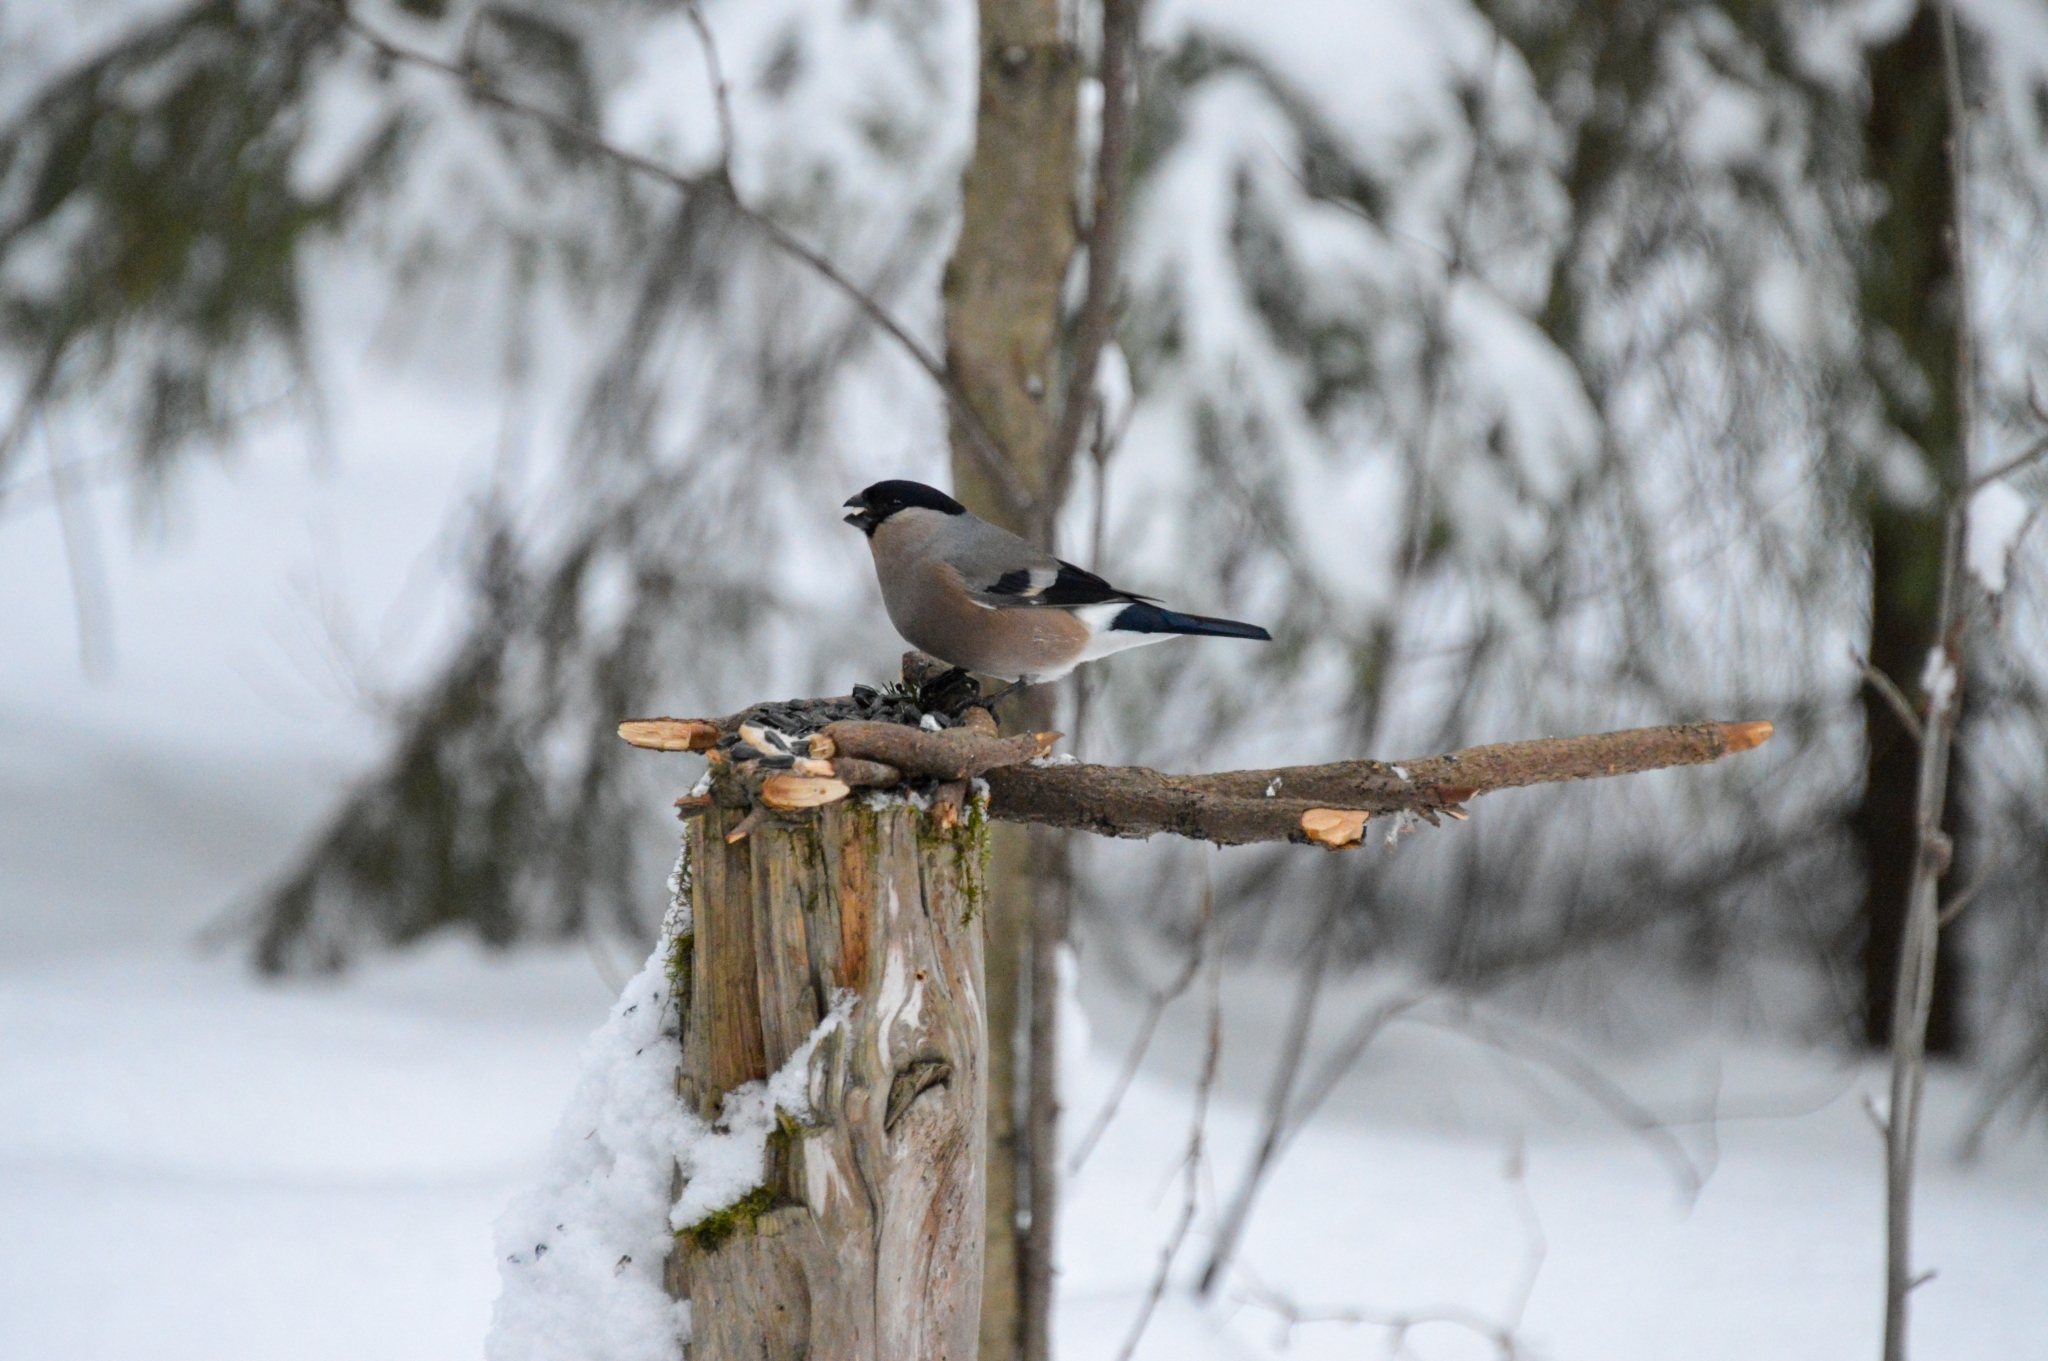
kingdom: Animalia
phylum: Chordata
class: Aves
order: Passeriformes
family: Fringillidae
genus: Pyrrhula
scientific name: Pyrrhula pyrrhula
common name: Eurasian bullfinch
